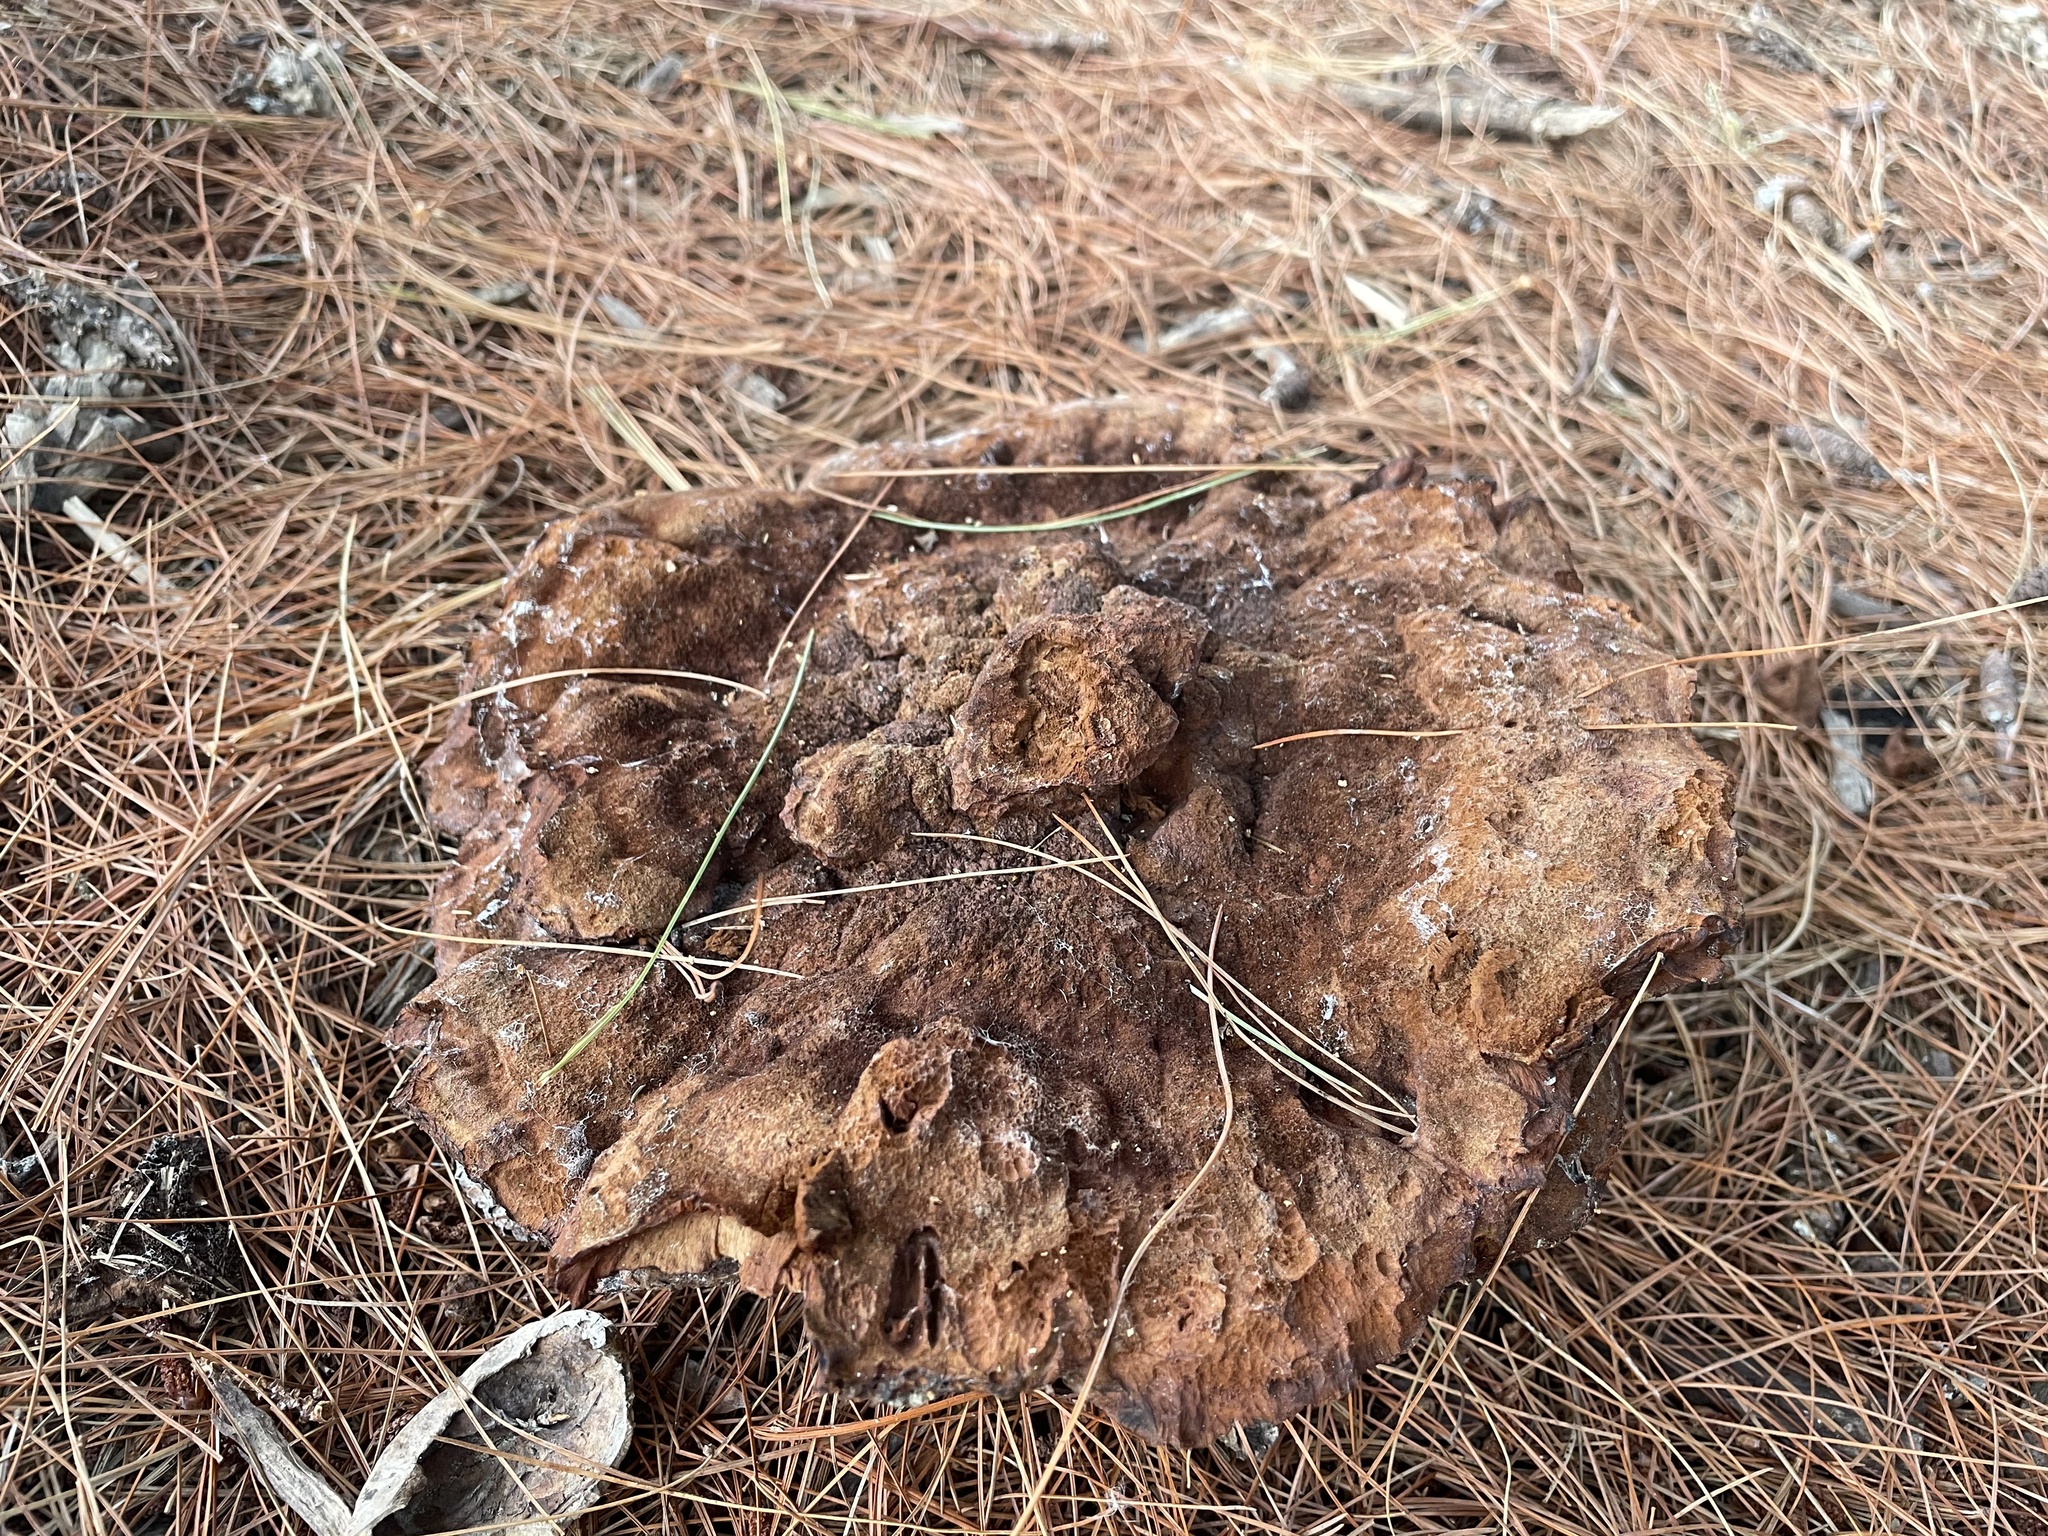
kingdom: Fungi
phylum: Basidiomycota
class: Agaricomycetes
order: Polyporales
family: Laetiporaceae
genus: Phaeolus
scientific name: Phaeolus schweinitzii
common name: Dyer's mazegill
